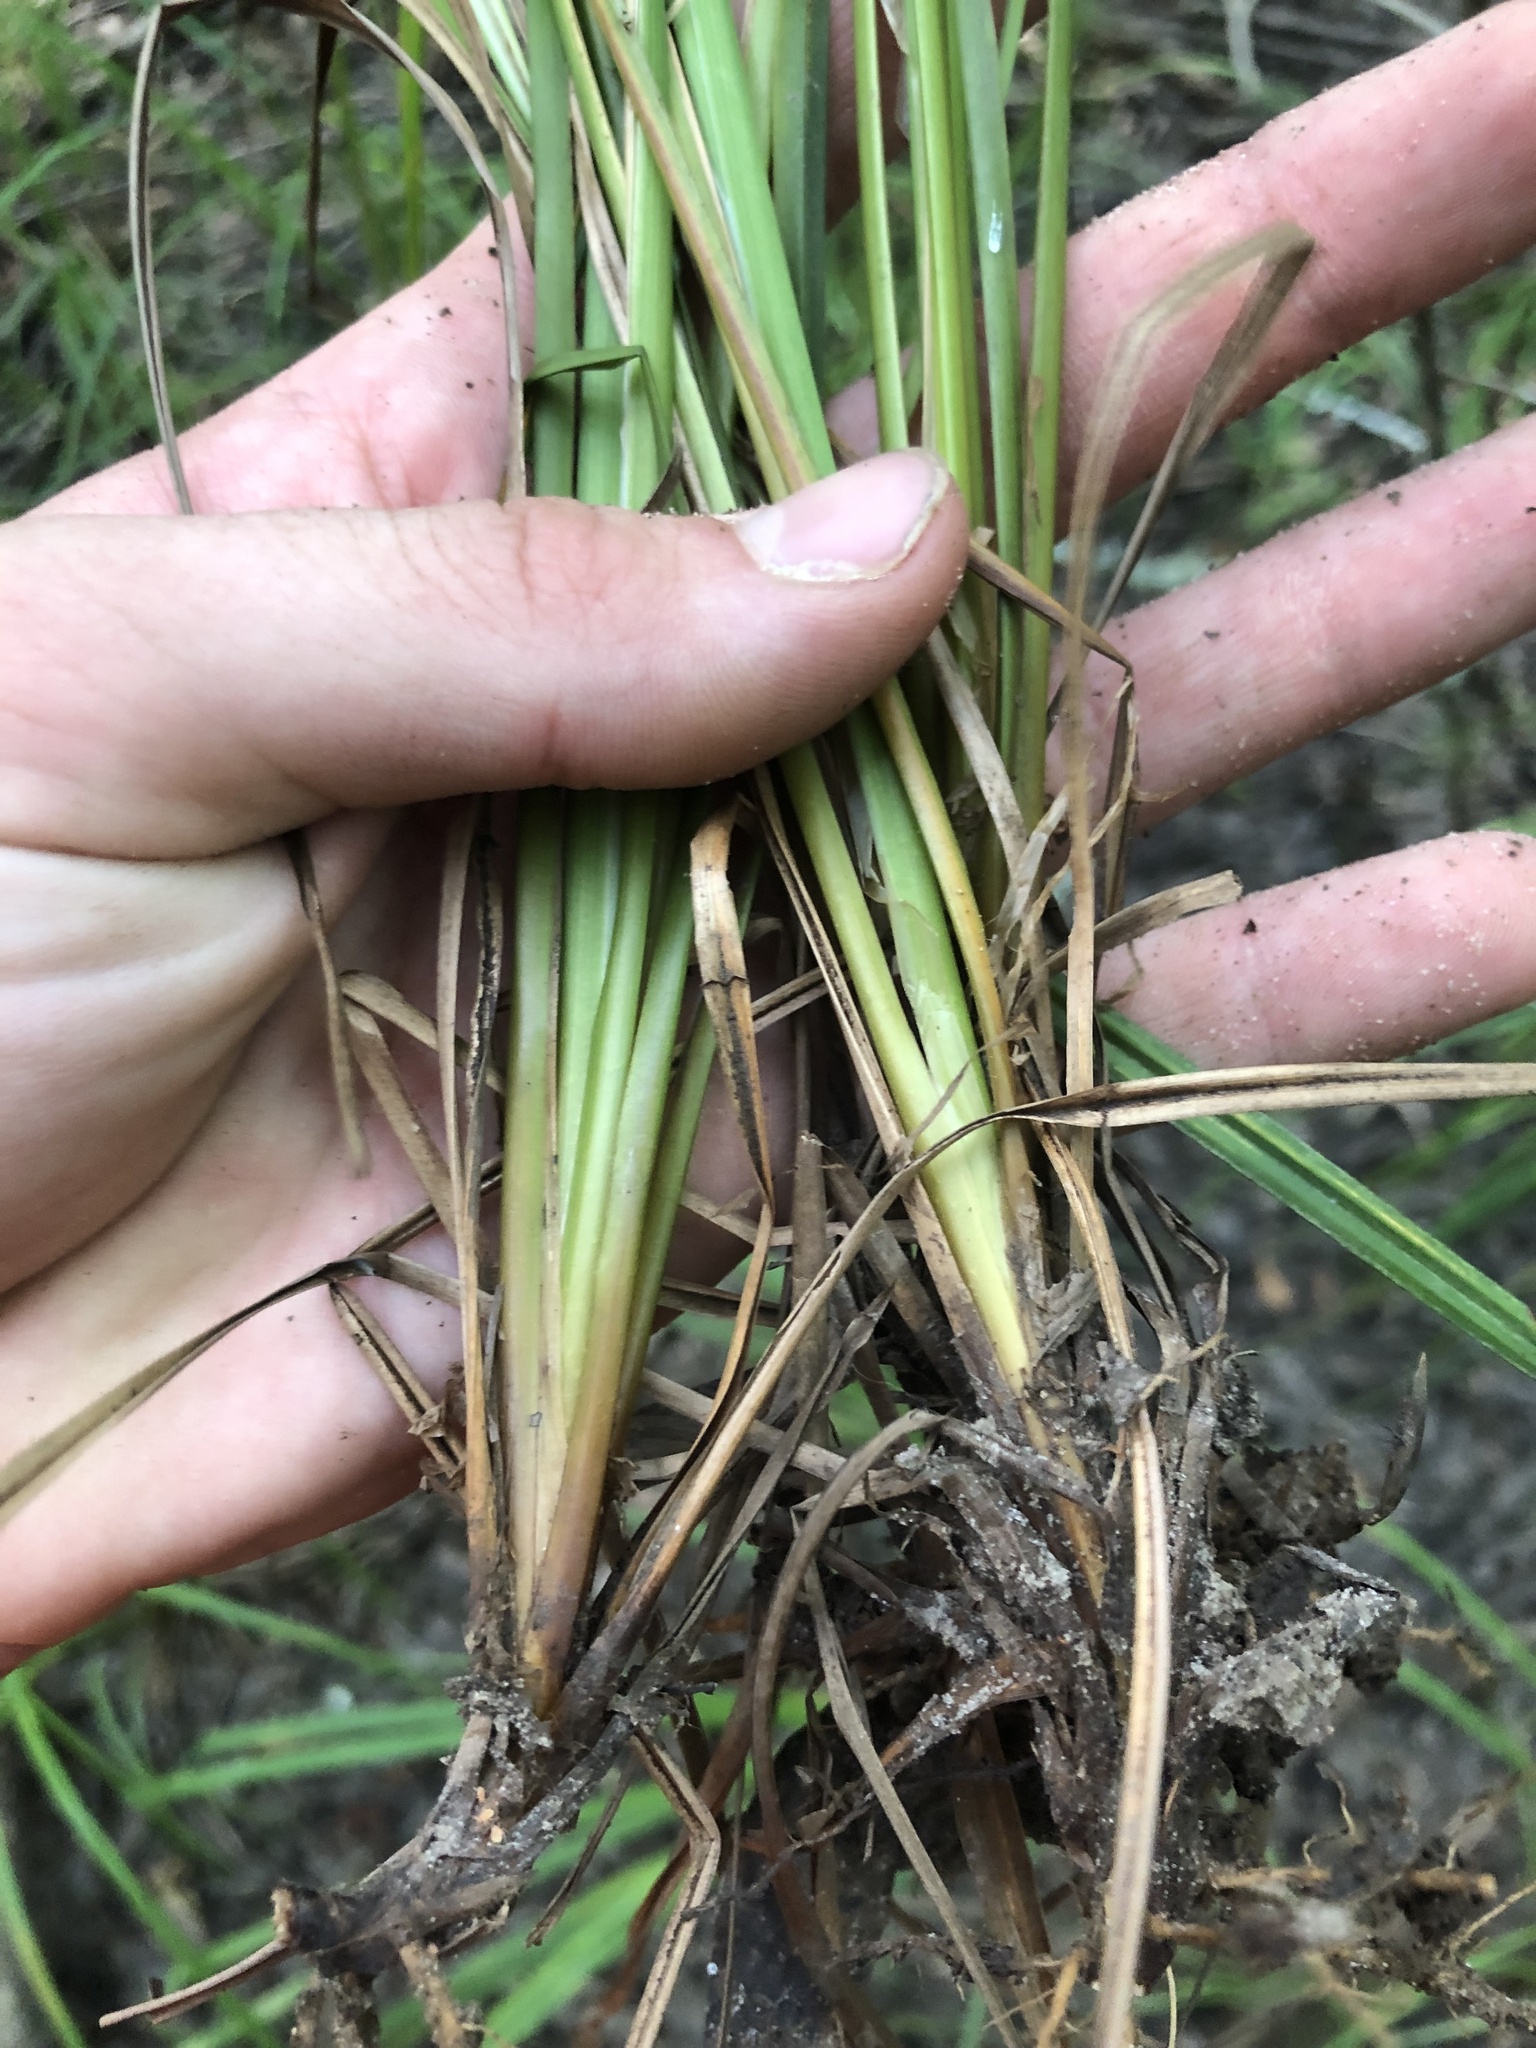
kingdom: Plantae
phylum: Tracheophyta
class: Liliopsida
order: Poales
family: Cyperaceae
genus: Carex
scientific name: Carex joorii
